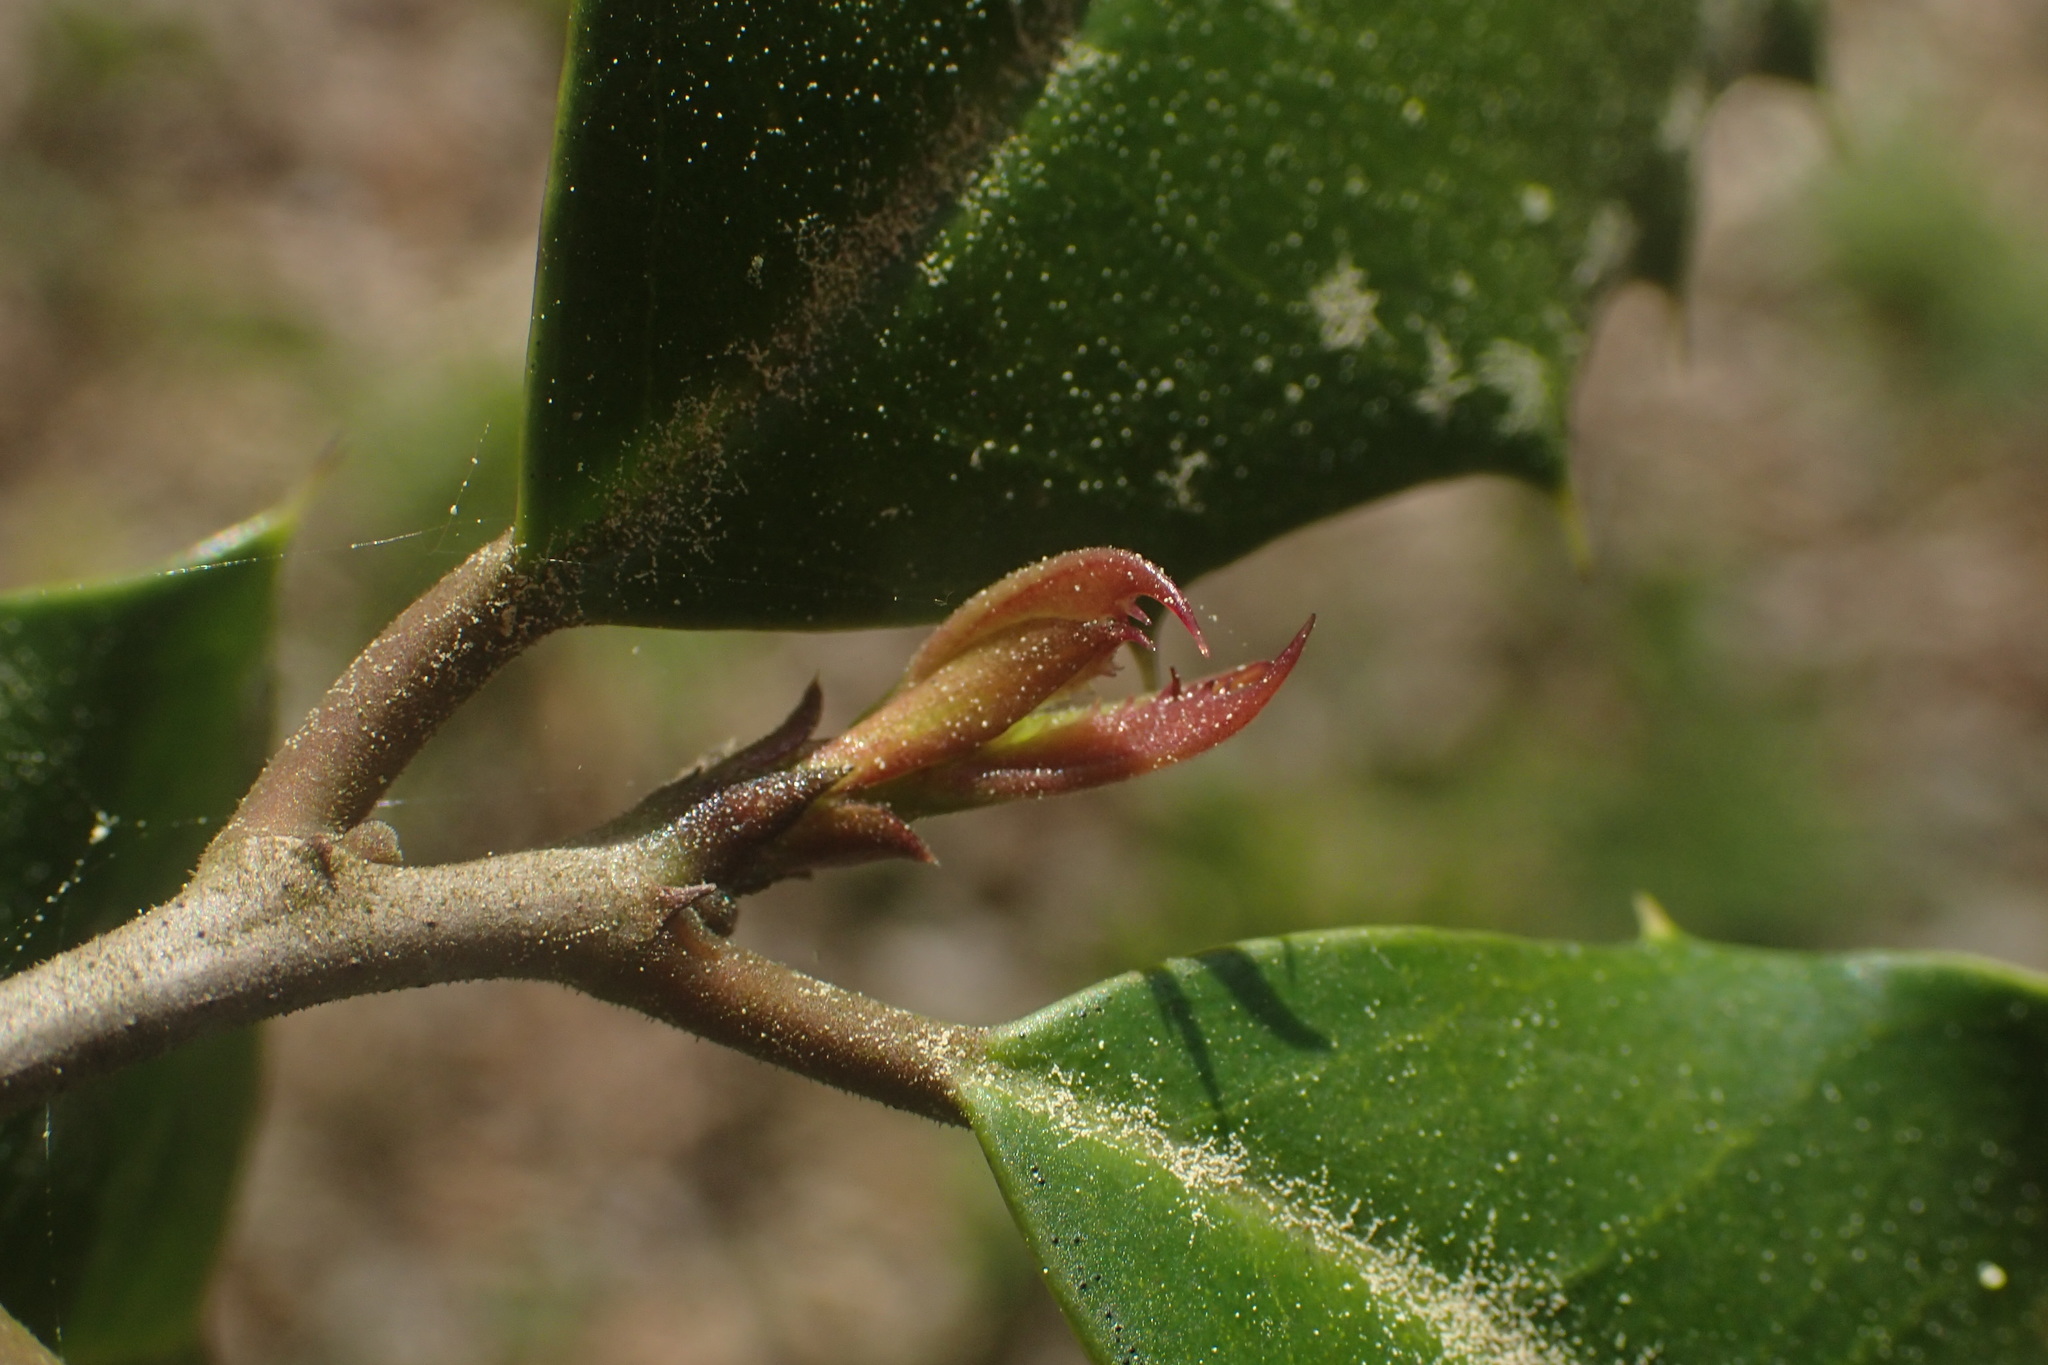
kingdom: Plantae
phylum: Tracheophyta
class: Magnoliopsida
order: Aquifoliales
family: Aquifoliaceae
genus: Ilex
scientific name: Ilex opaca
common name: American holly
